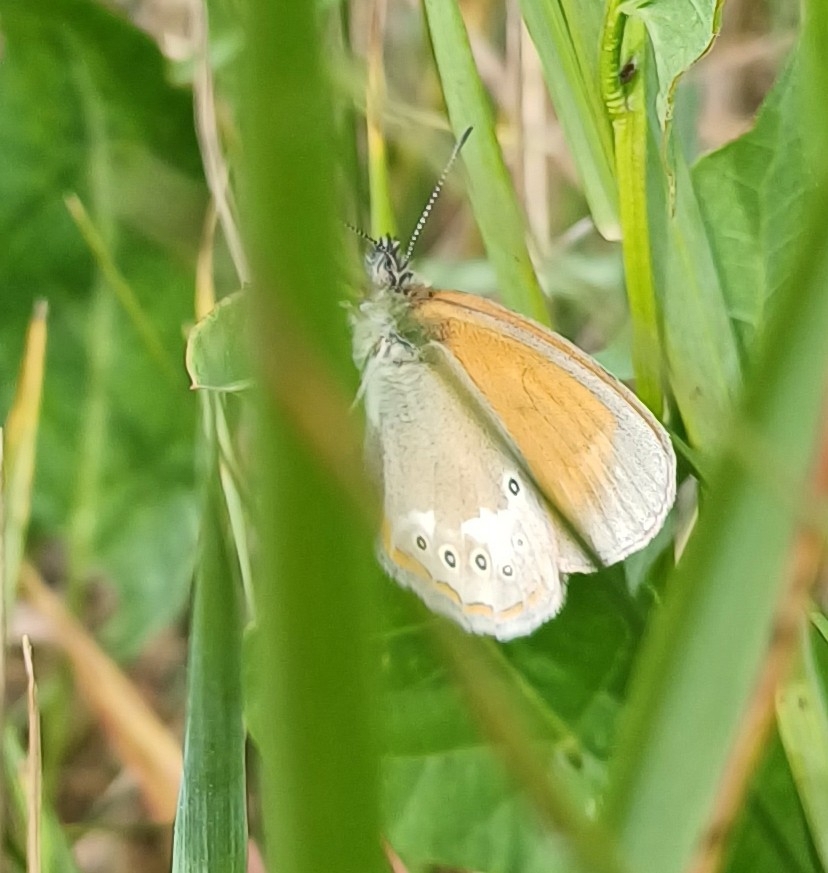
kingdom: Animalia
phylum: Arthropoda
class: Insecta
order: Lepidoptera
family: Nymphalidae
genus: Coenonympha
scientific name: Coenonympha iphis
